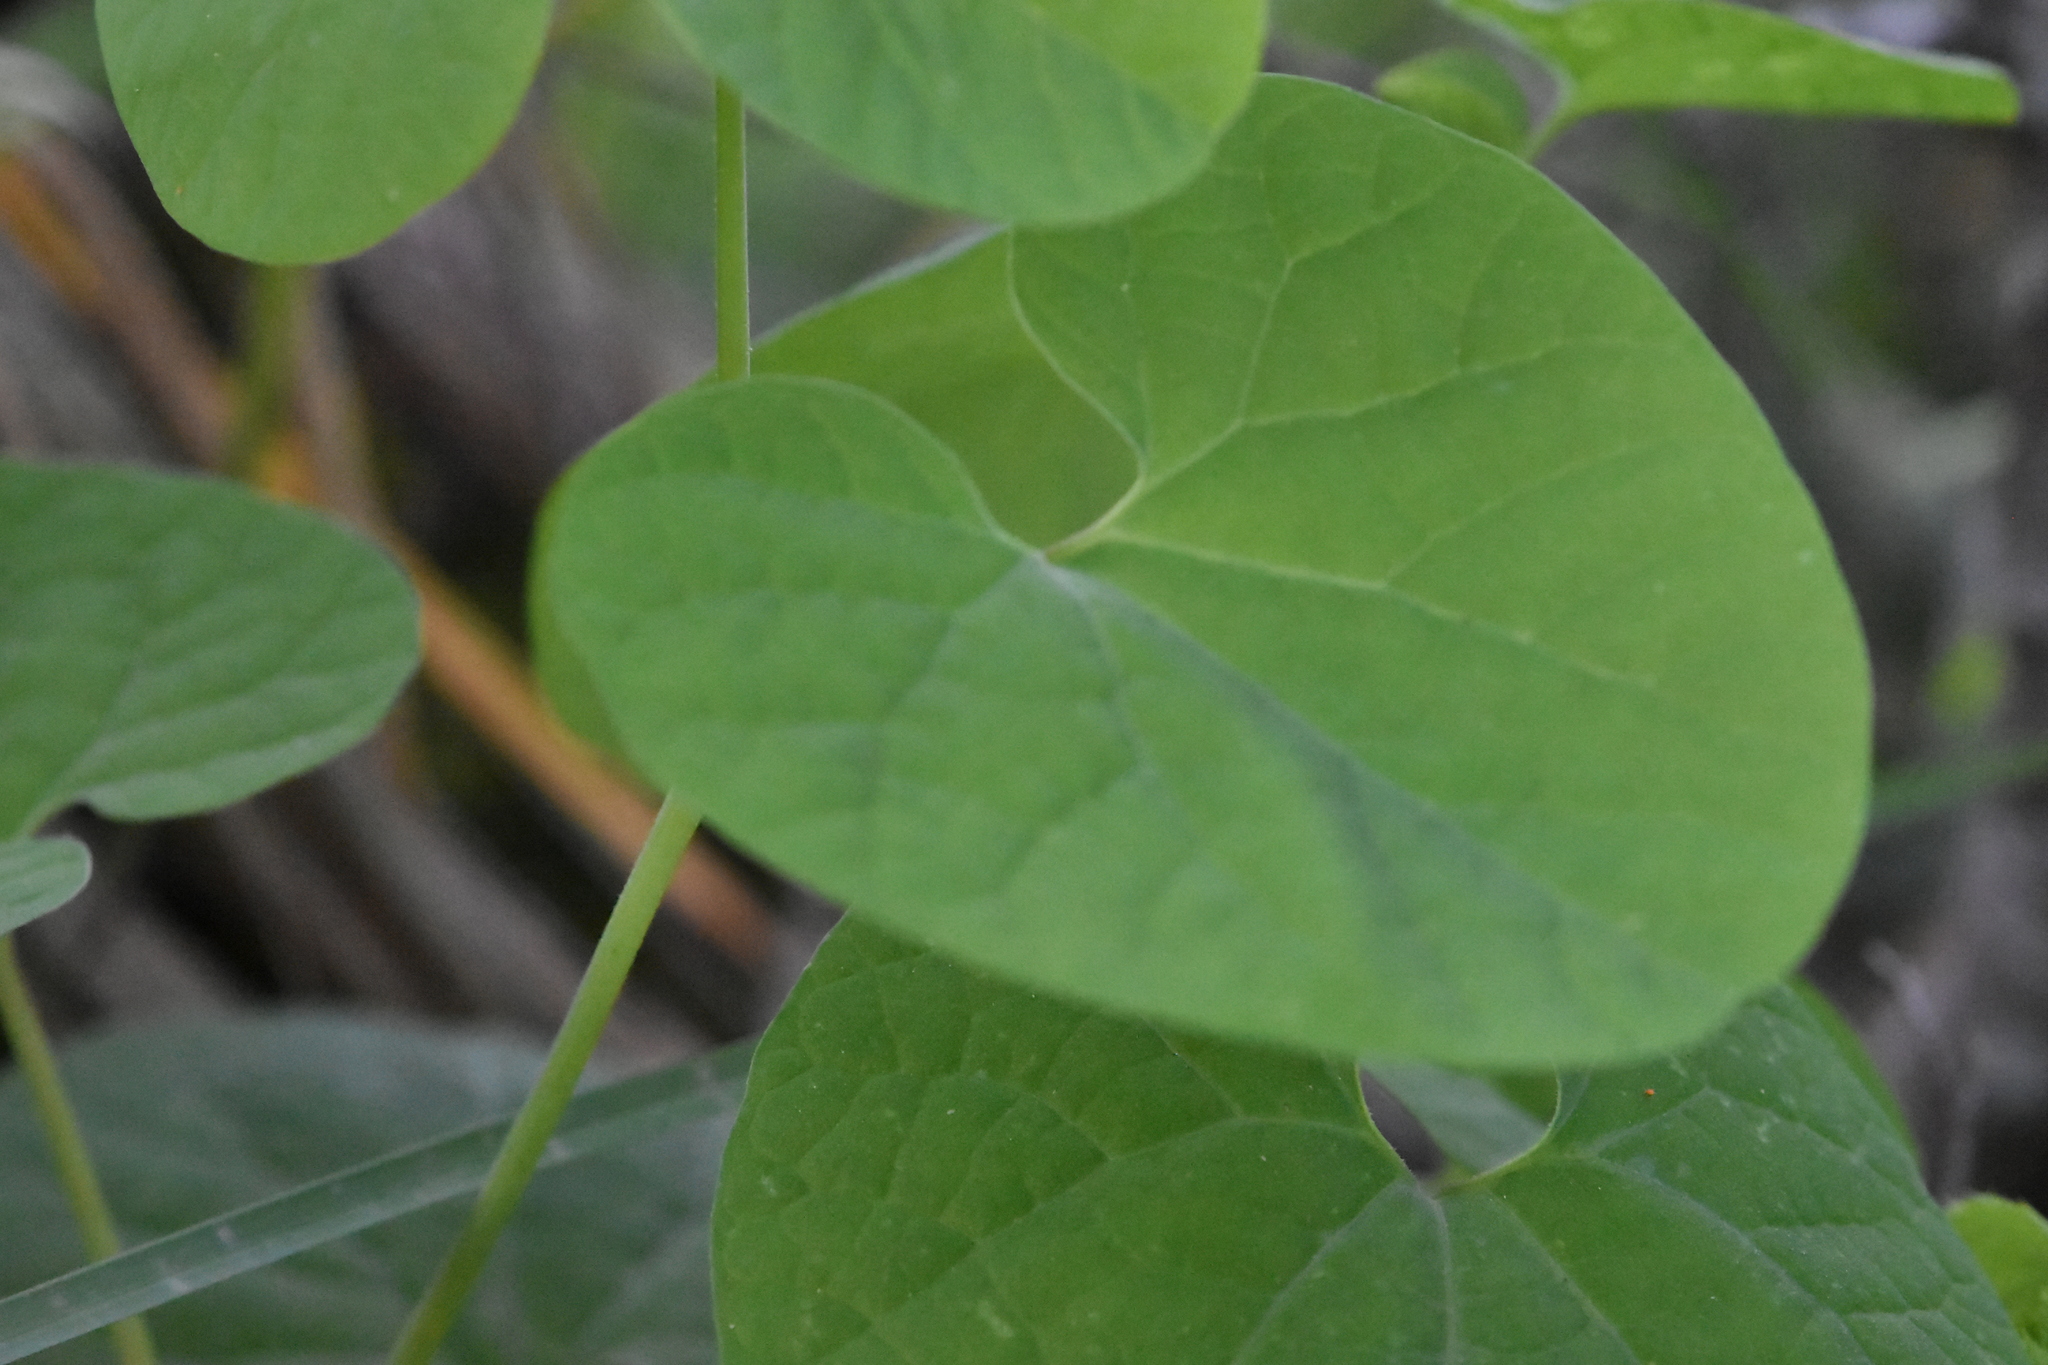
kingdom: Plantae
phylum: Tracheophyta
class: Magnoliopsida
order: Piperales
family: Aristolochiaceae
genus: Aristolochia
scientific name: Aristolochia steupii
